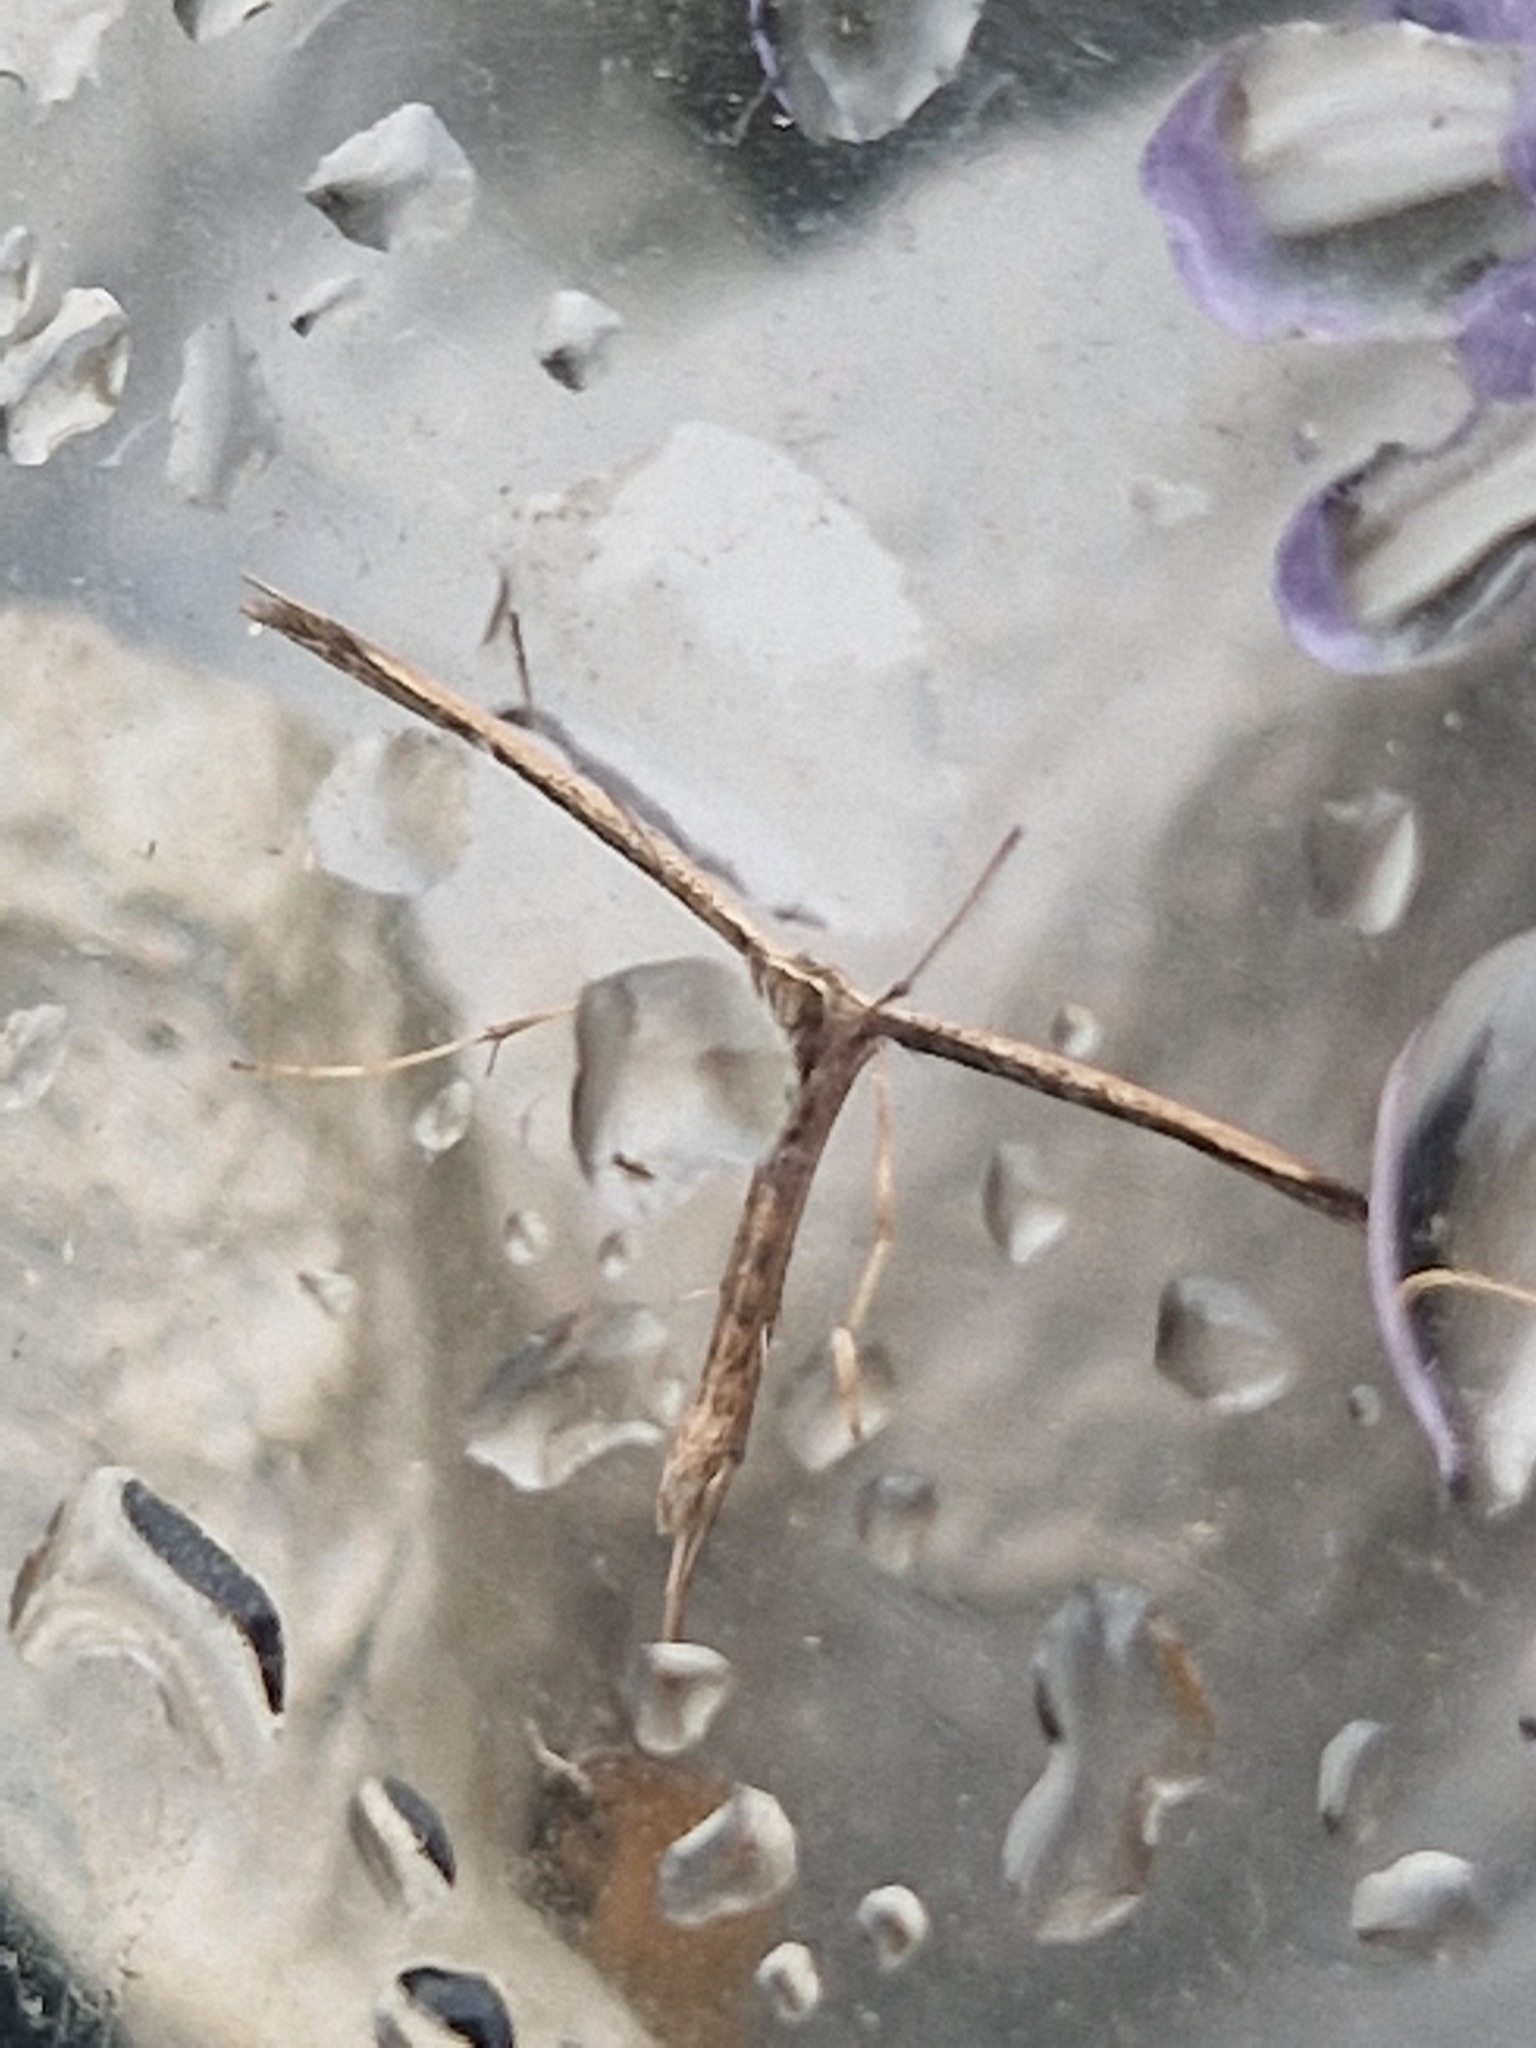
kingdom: Animalia
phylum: Arthropoda
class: Insecta
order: Lepidoptera
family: Pterophoridae
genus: Emmelina
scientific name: Emmelina monodactyla
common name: Common plume
